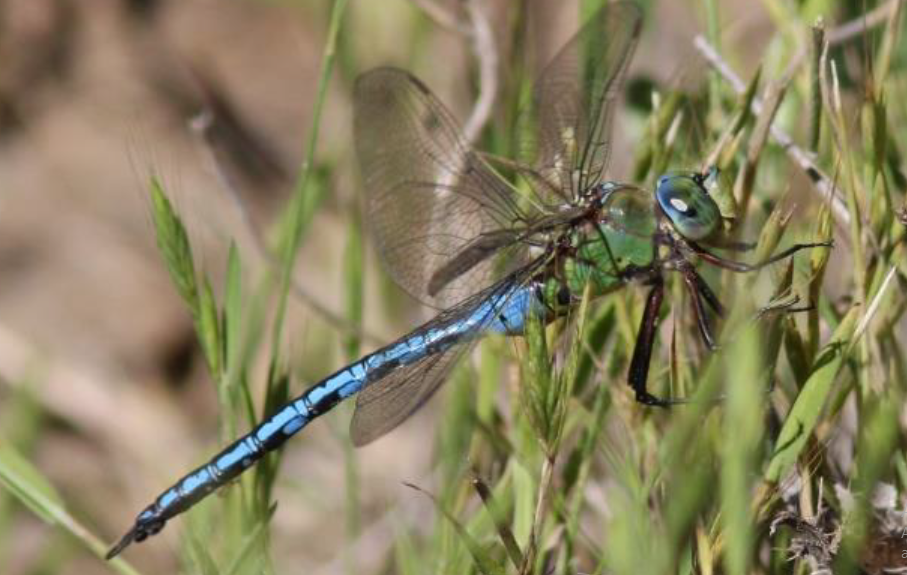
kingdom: Animalia
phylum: Arthropoda
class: Insecta
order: Odonata
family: Aeshnidae
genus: Anax
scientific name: Anax imperator
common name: Emperor dragonfly
